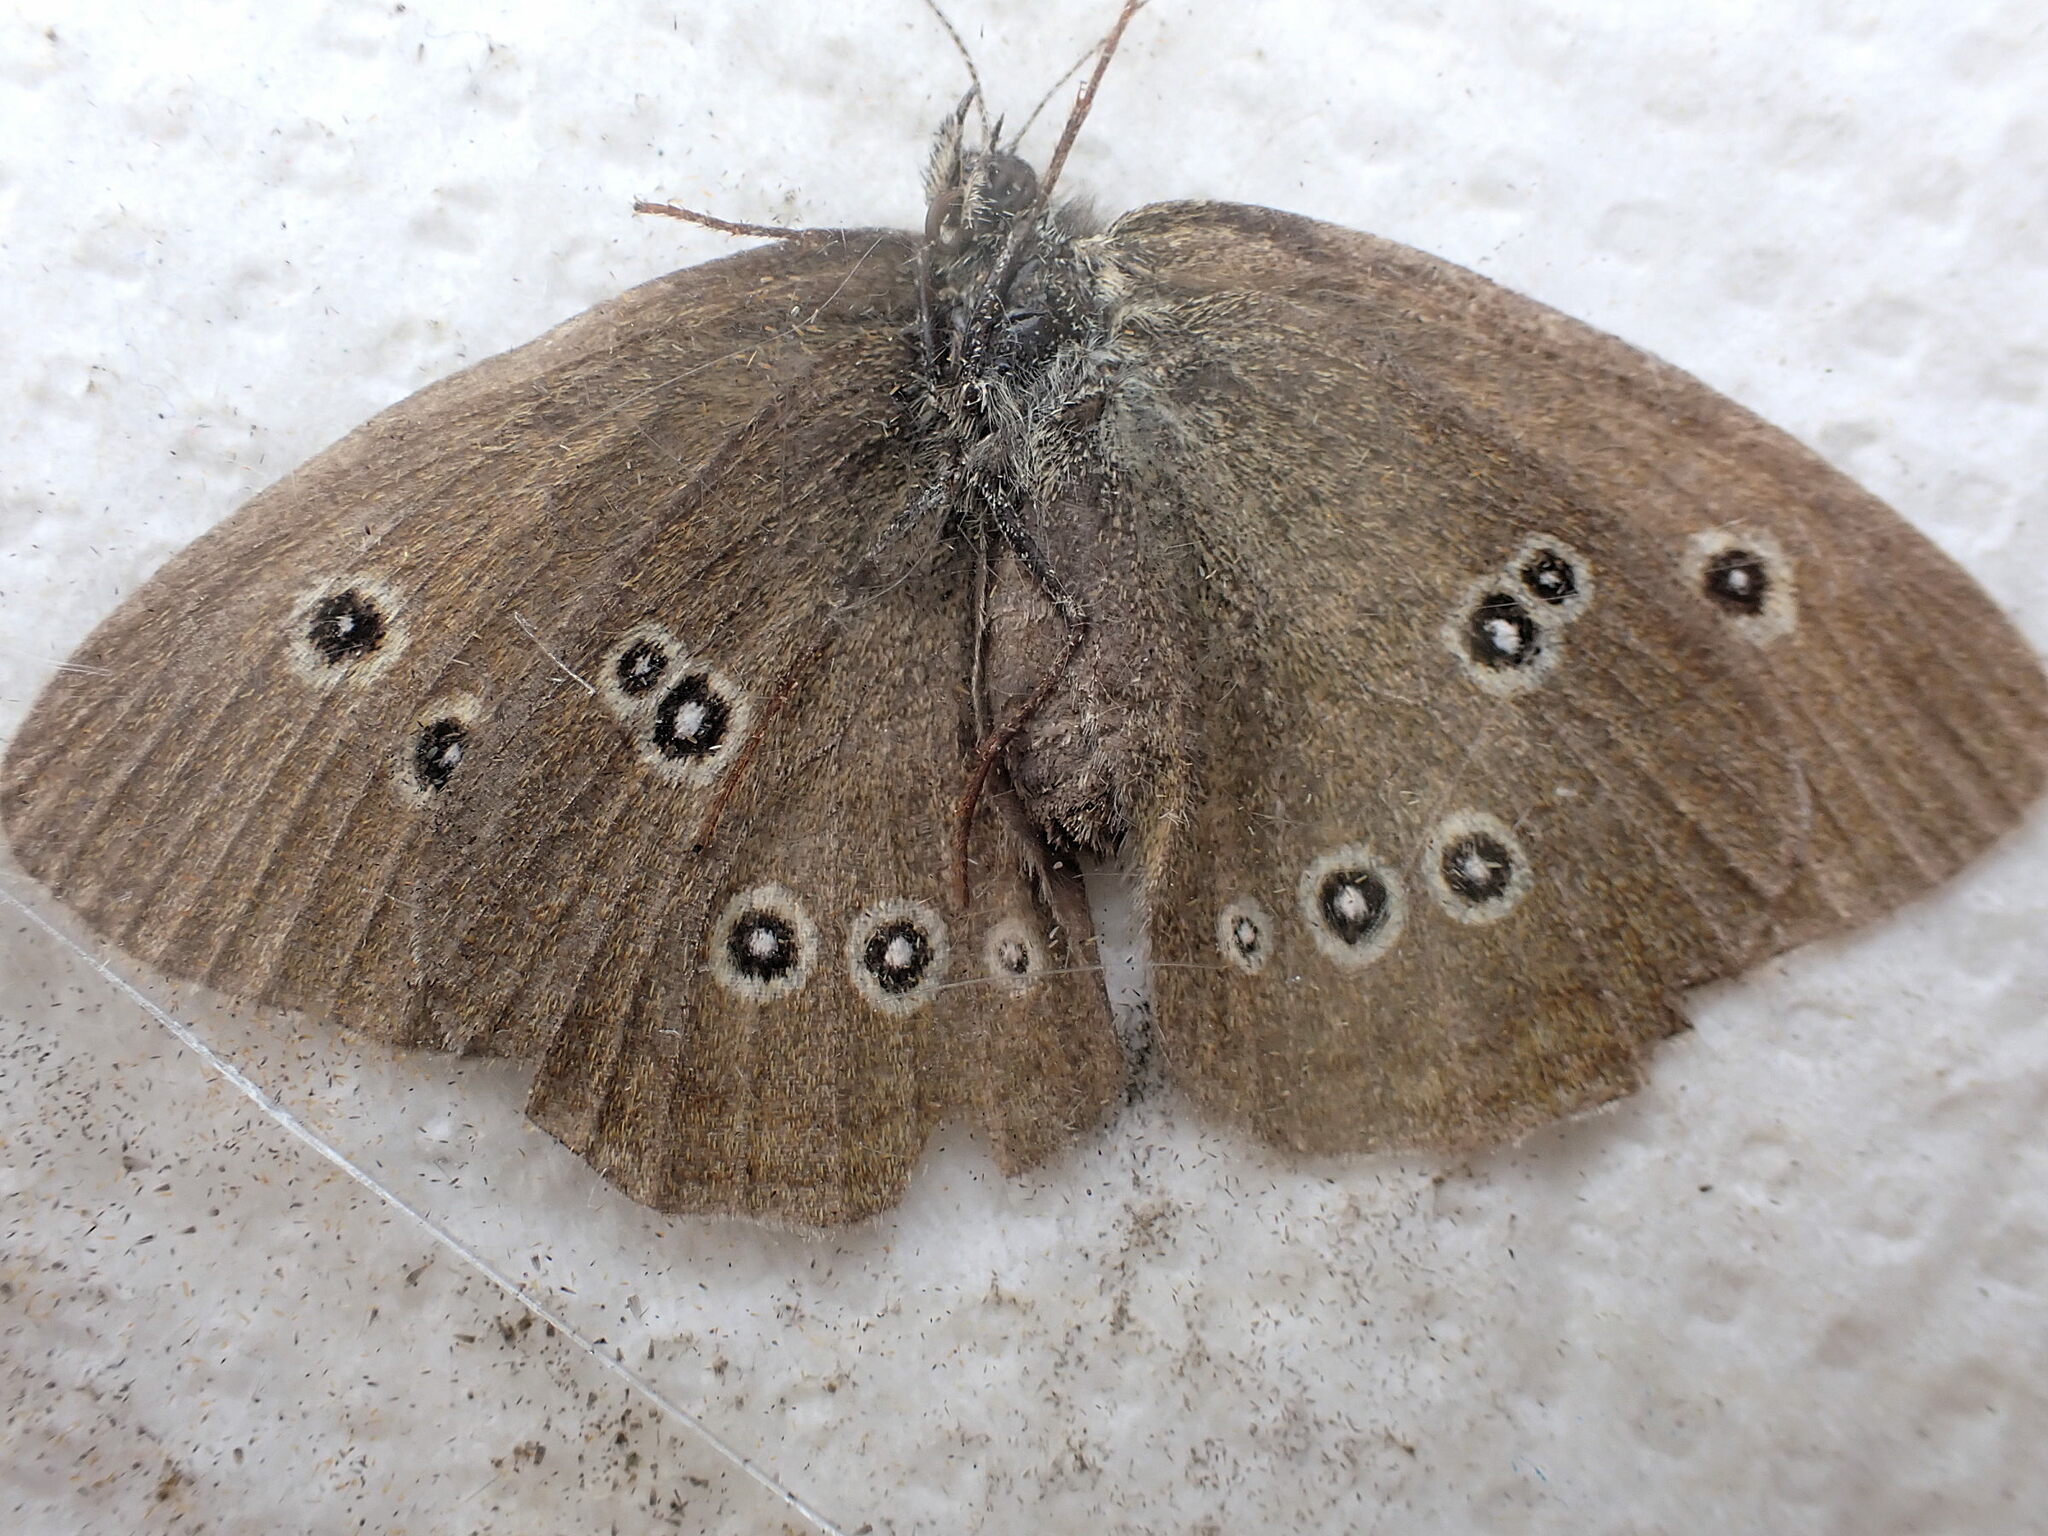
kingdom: Animalia
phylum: Arthropoda
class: Insecta
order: Lepidoptera
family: Nymphalidae
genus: Aphantopus
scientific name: Aphantopus hyperantus
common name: Ringlet
